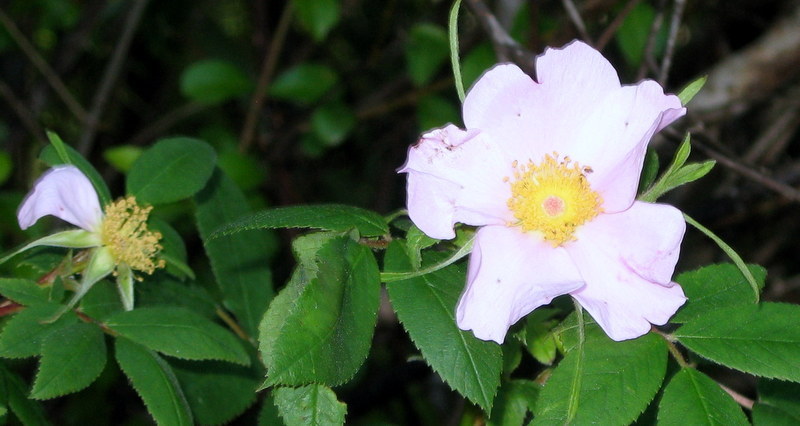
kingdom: Plantae
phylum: Tracheophyta
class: Magnoliopsida
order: Rosales
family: Rosaceae
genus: Rosa
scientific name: Rosa palustris
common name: Swamp rose
